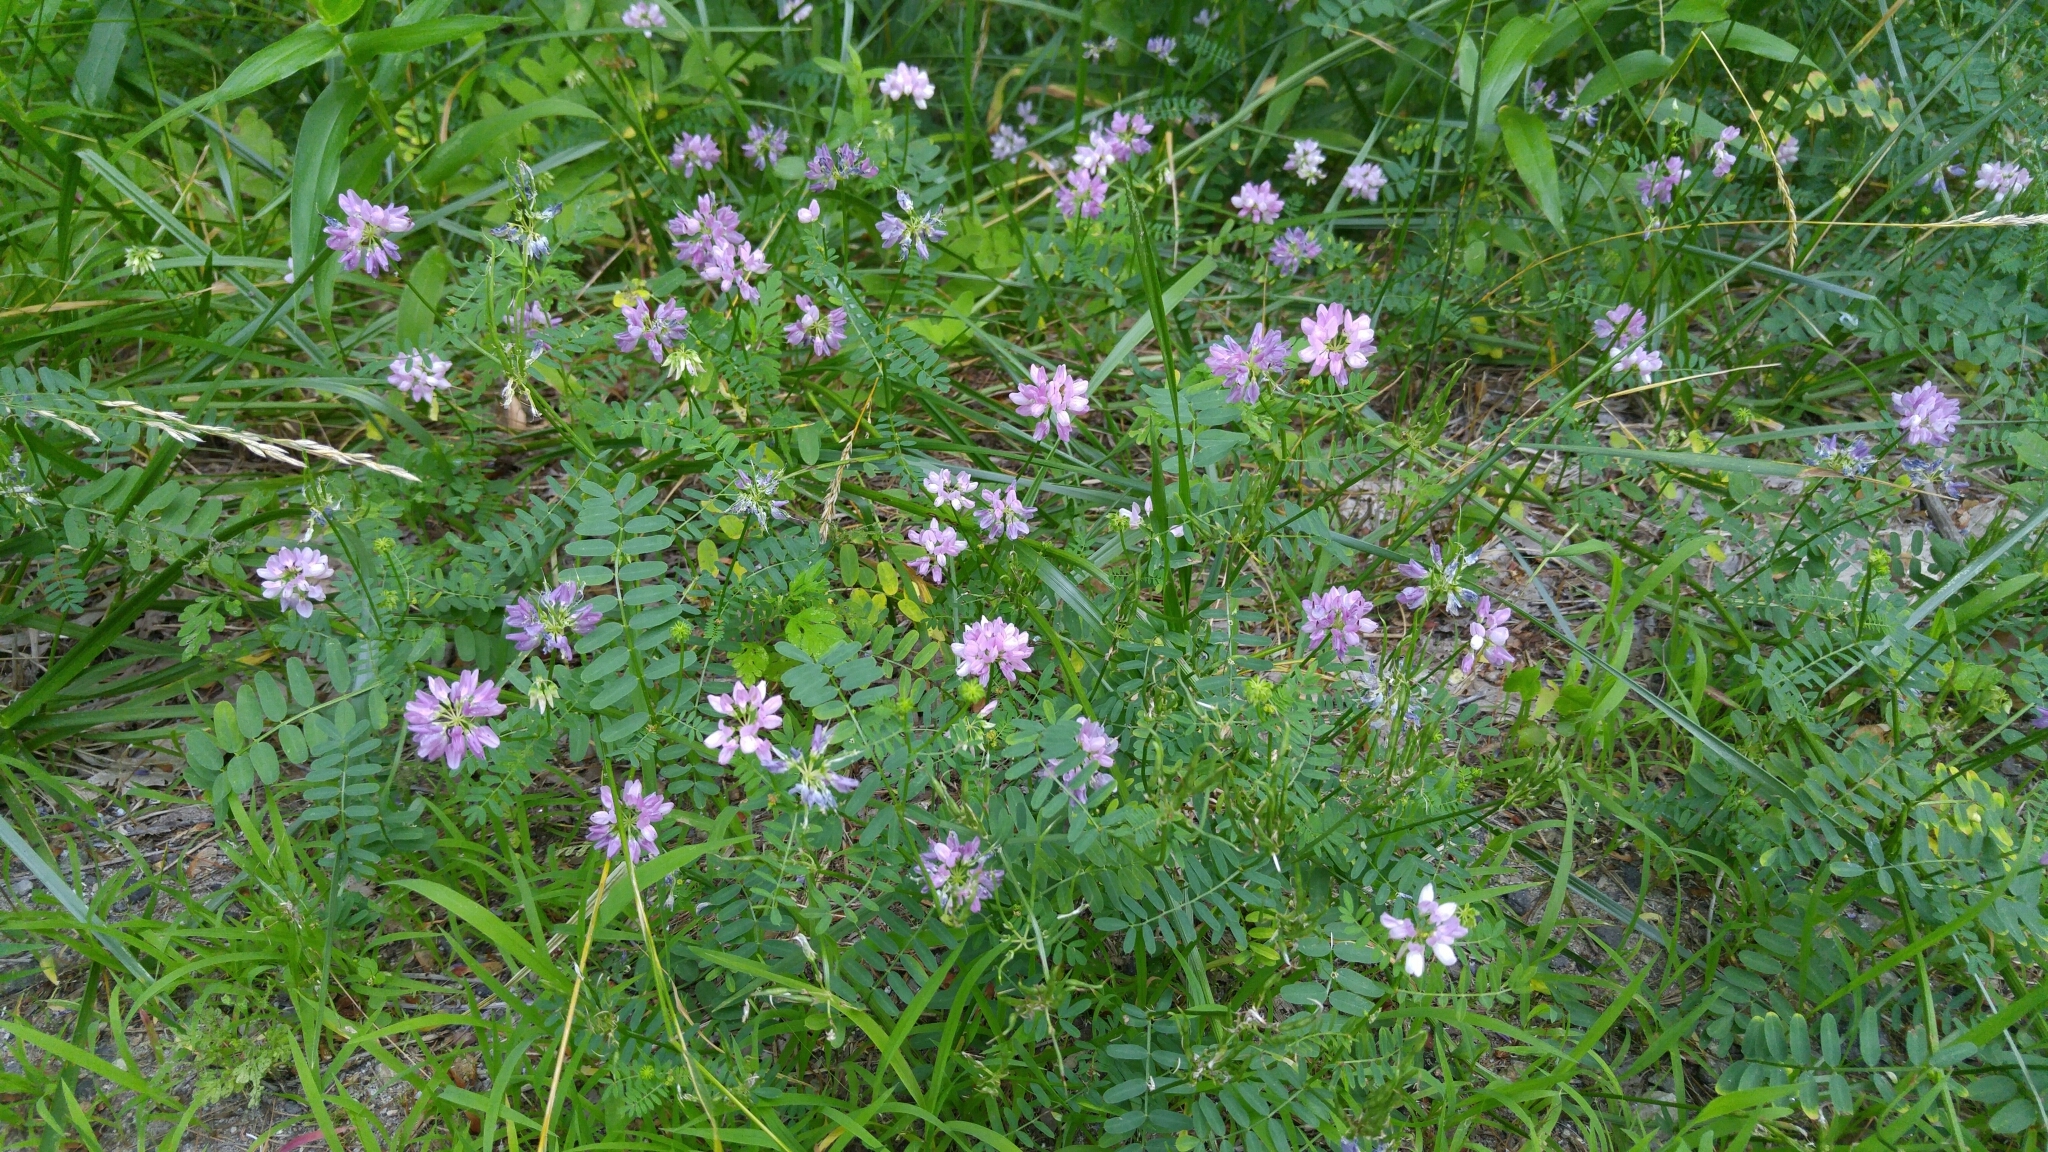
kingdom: Plantae
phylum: Tracheophyta
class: Magnoliopsida
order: Fabales
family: Fabaceae
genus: Coronilla
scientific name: Coronilla varia
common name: Crownvetch
